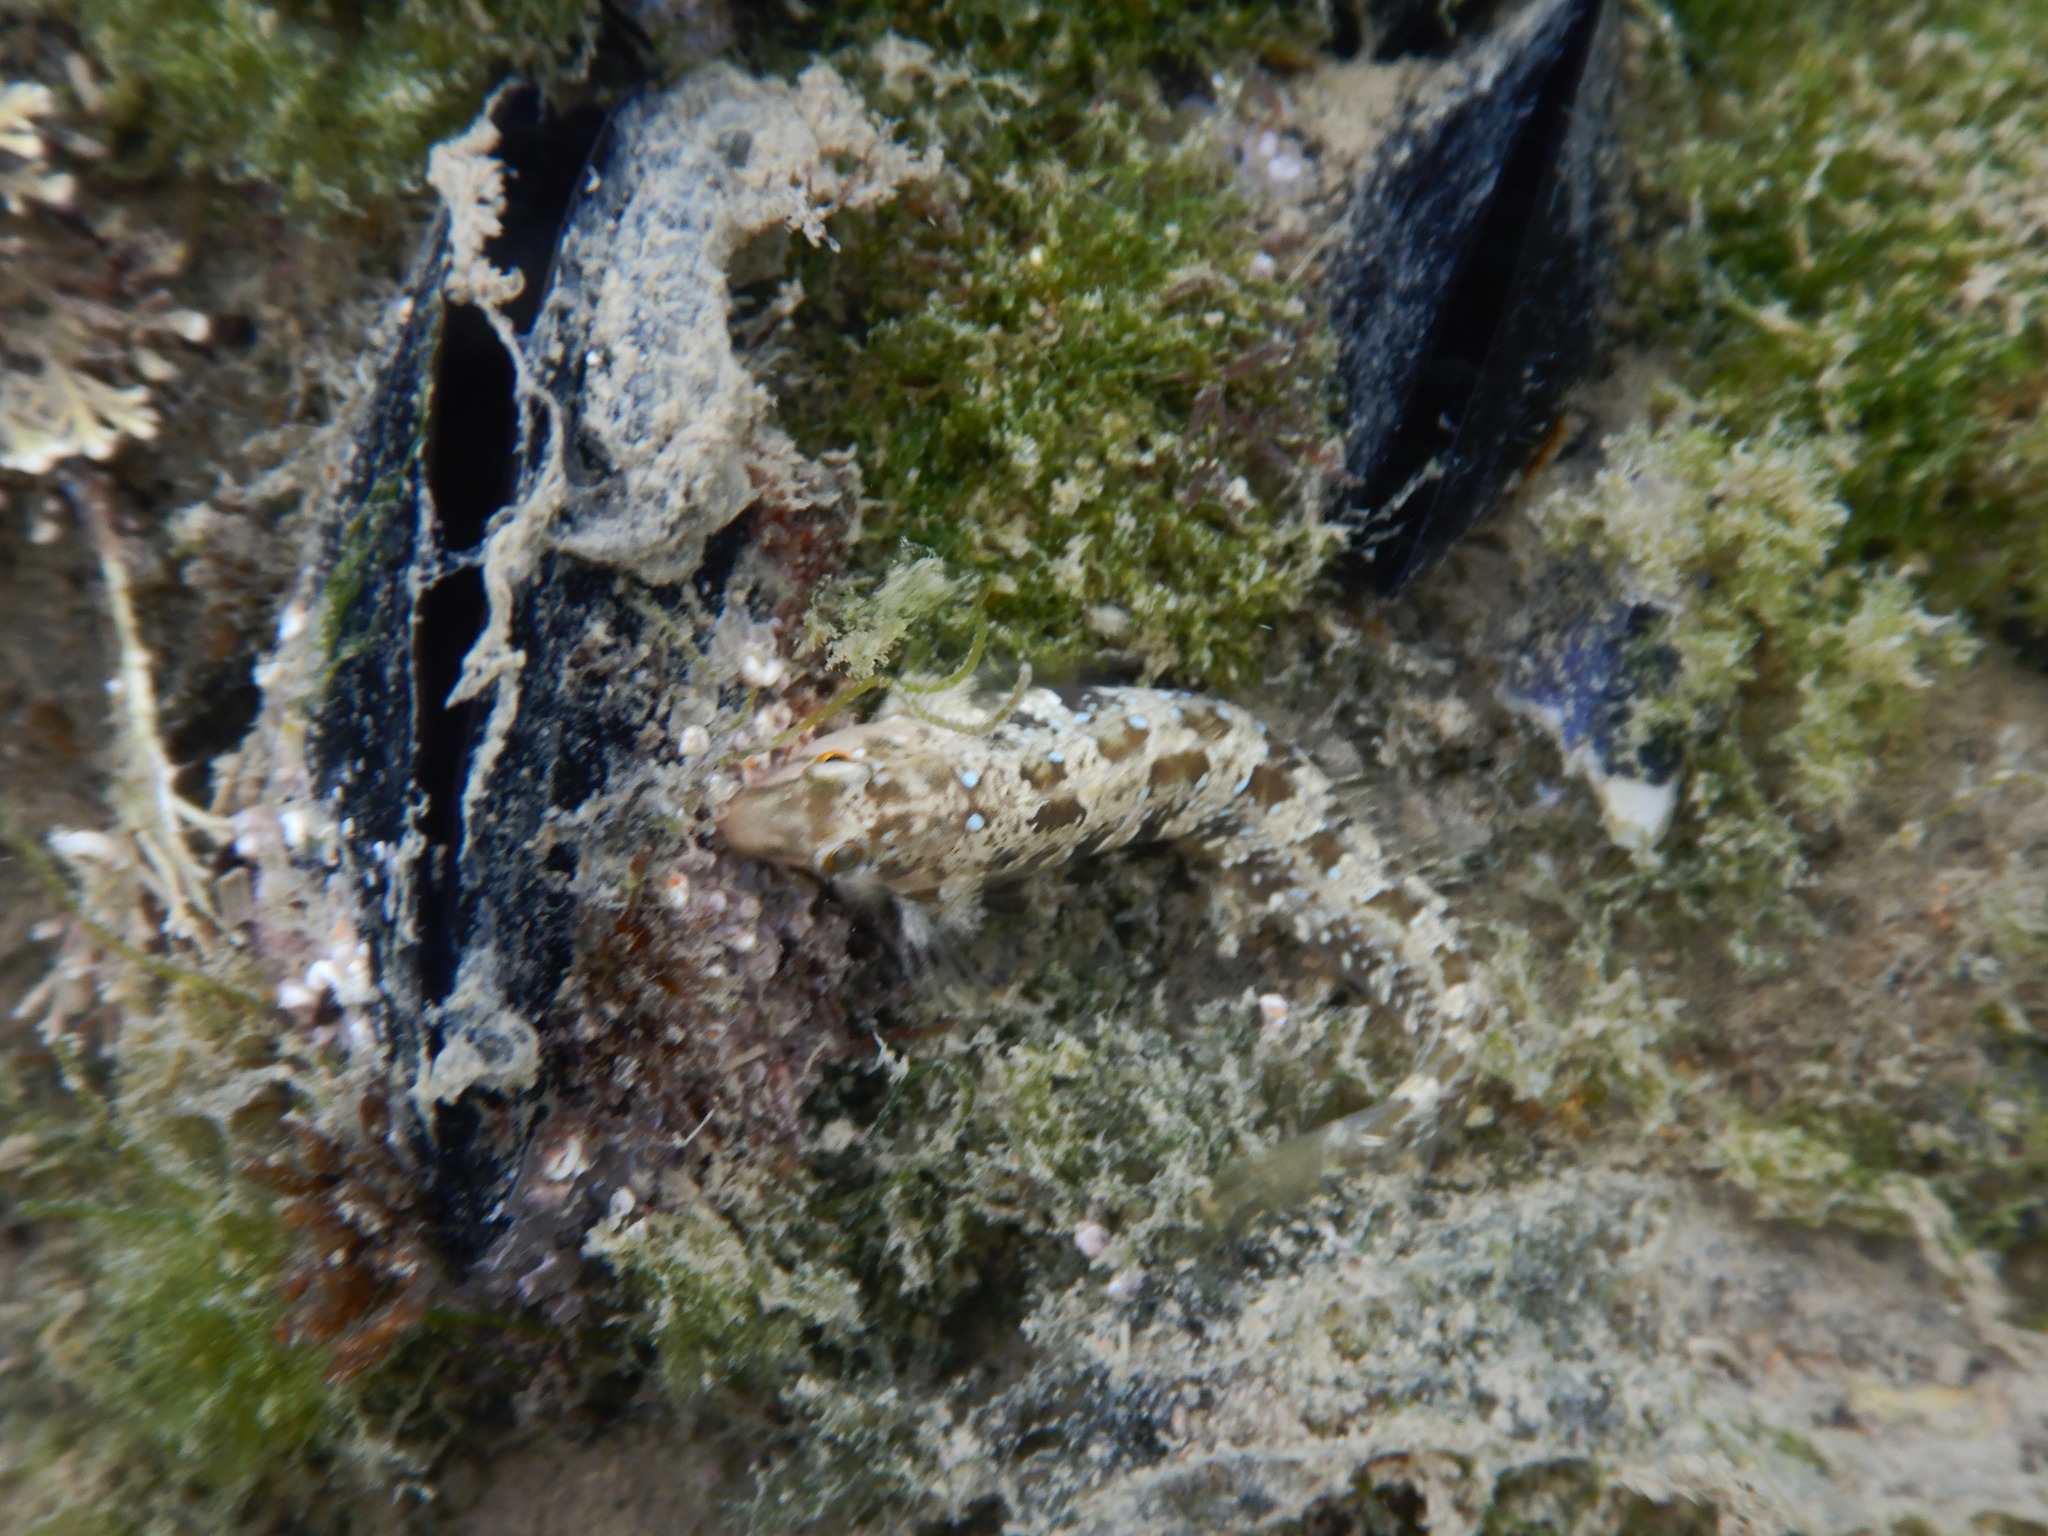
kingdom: Animalia
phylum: Chordata
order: Perciformes
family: Blenniidae
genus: Microlipophrys
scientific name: Microlipophrys dalmatinus
